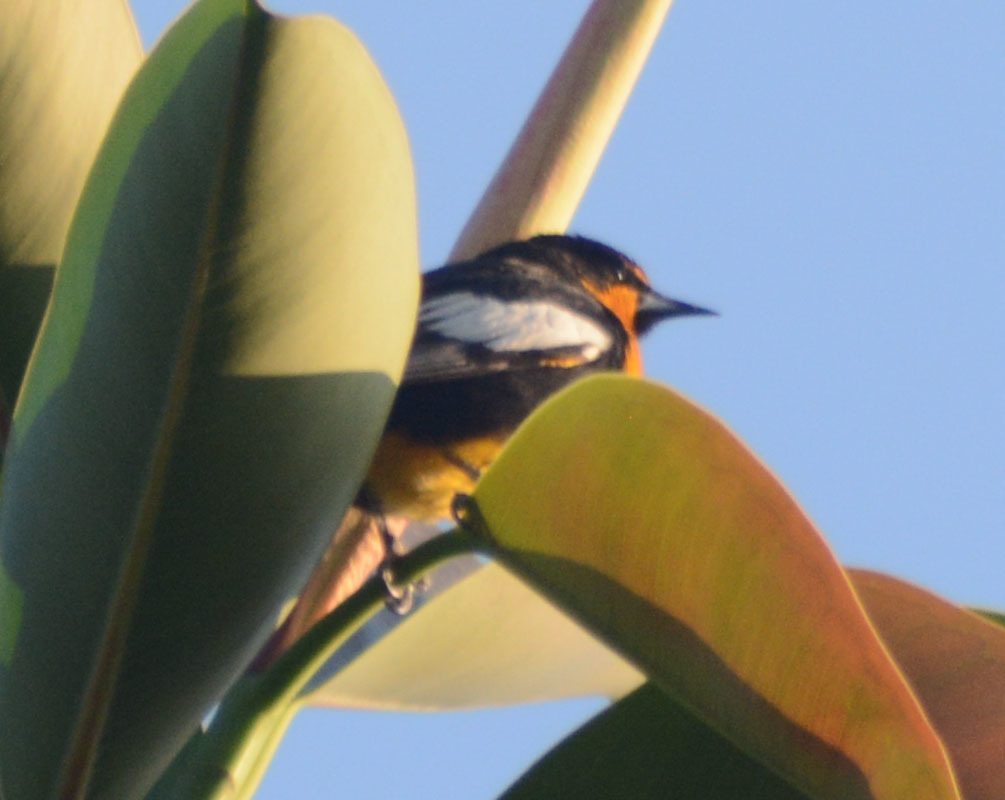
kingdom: Animalia
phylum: Chordata
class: Aves
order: Passeriformes
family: Icteridae
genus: Icterus
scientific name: Icterus abeillei
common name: Black-backed oriole
